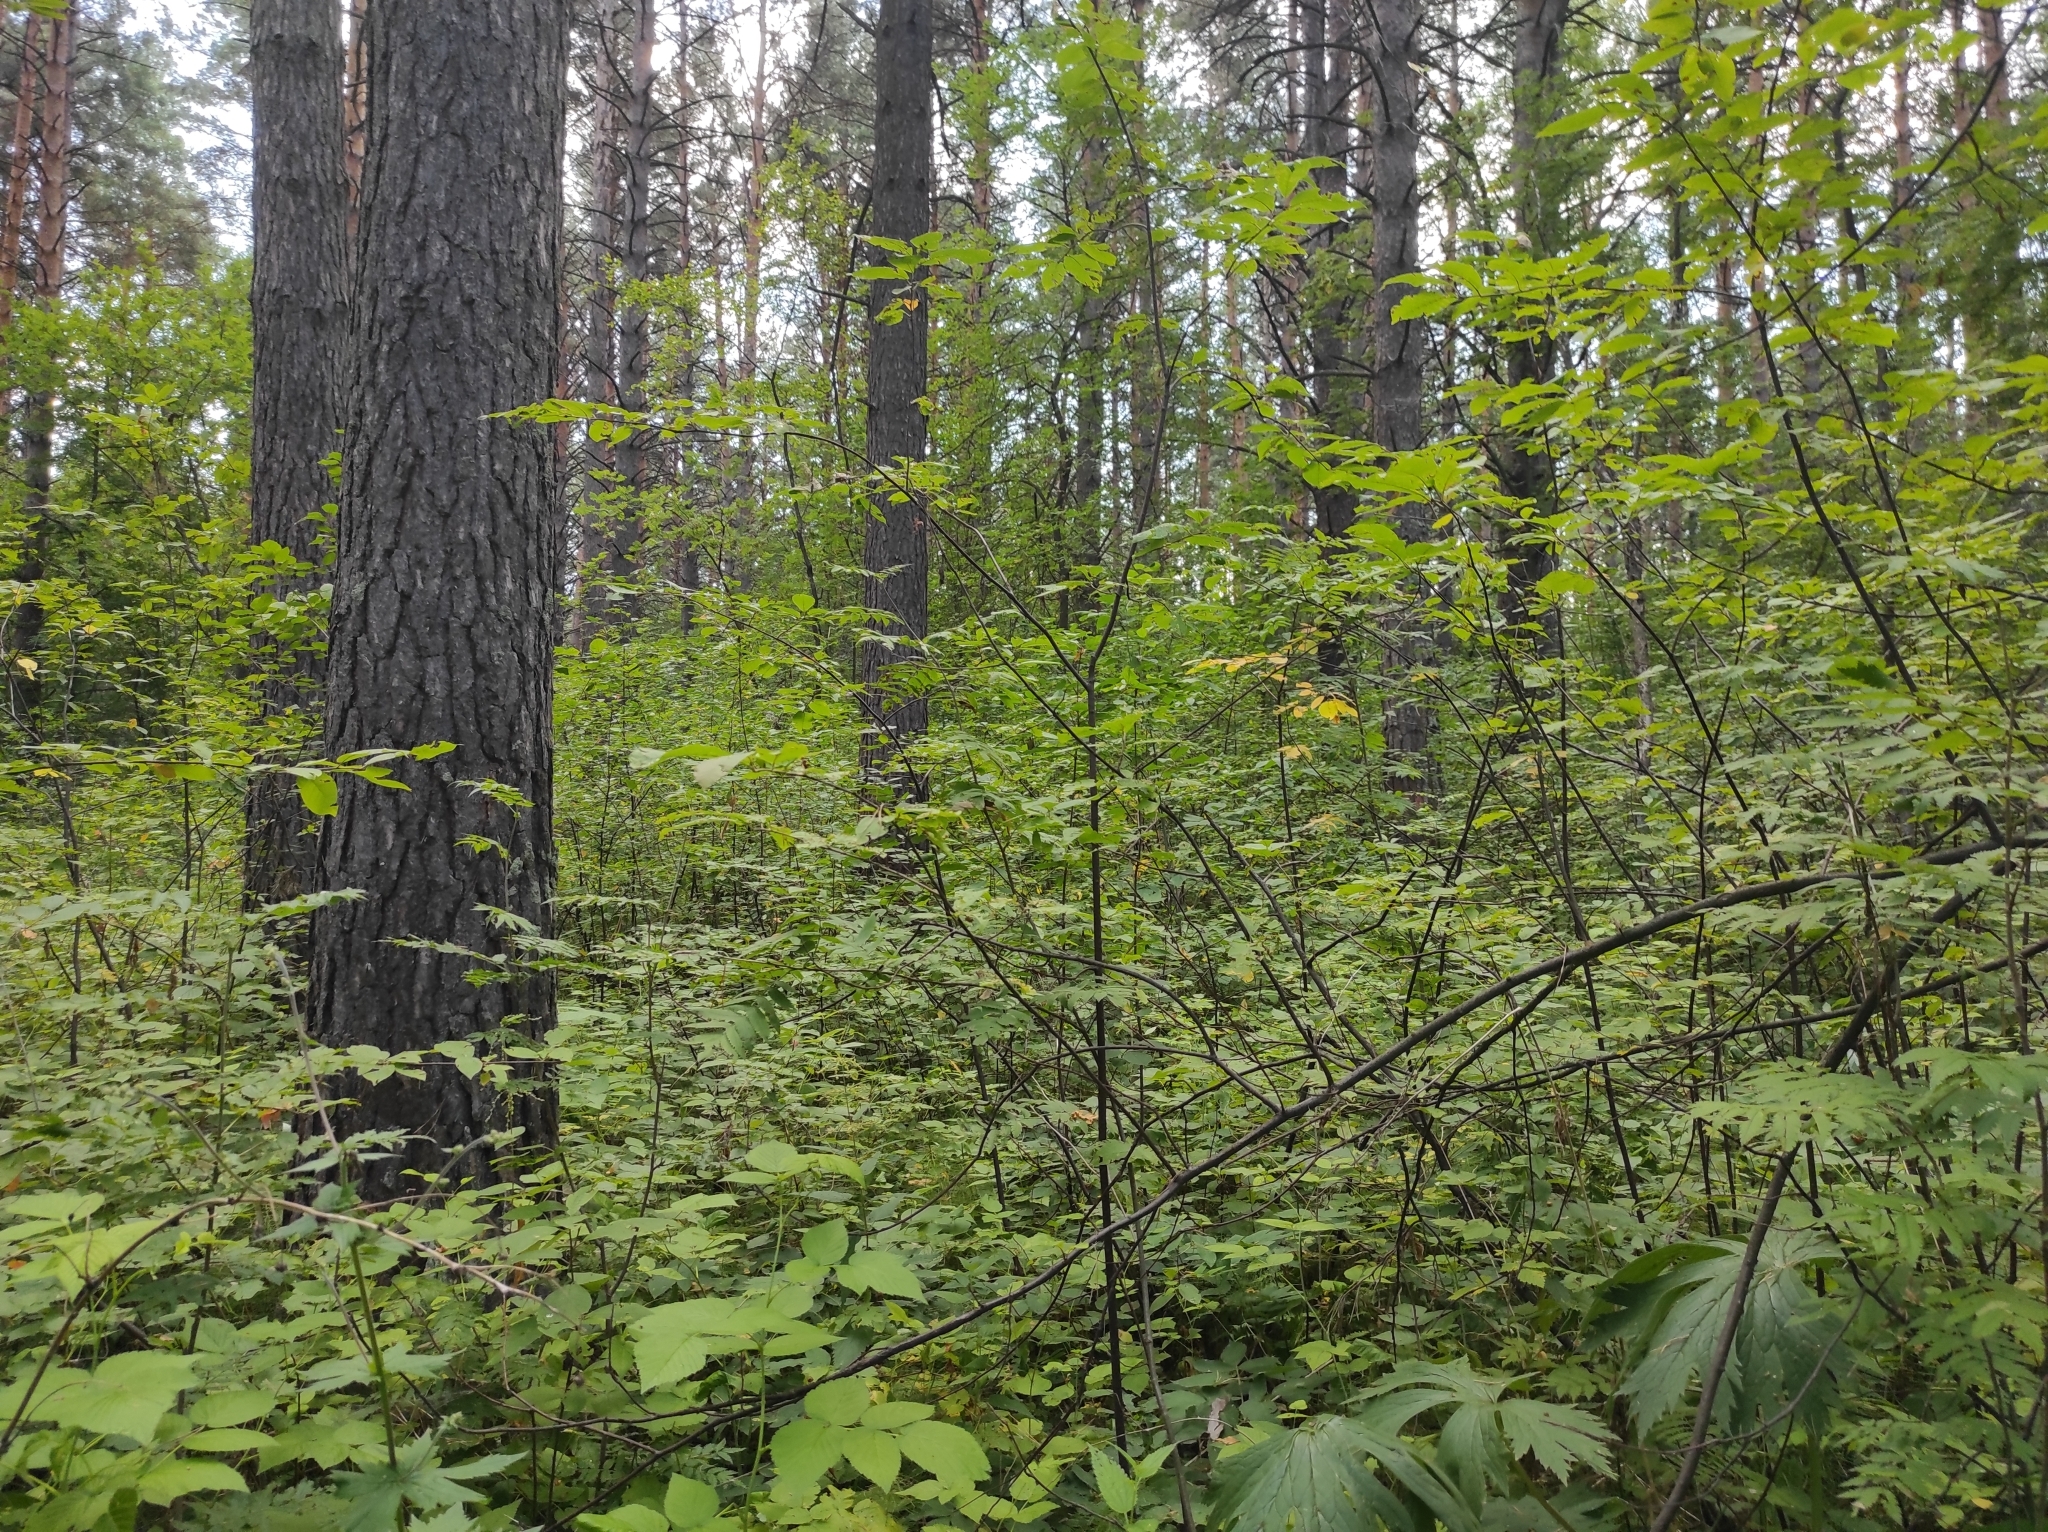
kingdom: Plantae
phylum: Tracheophyta
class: Magnoliopsida
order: Rosales
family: Rosaceae
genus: Prunus
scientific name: Prunus padus
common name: Bird cherry
